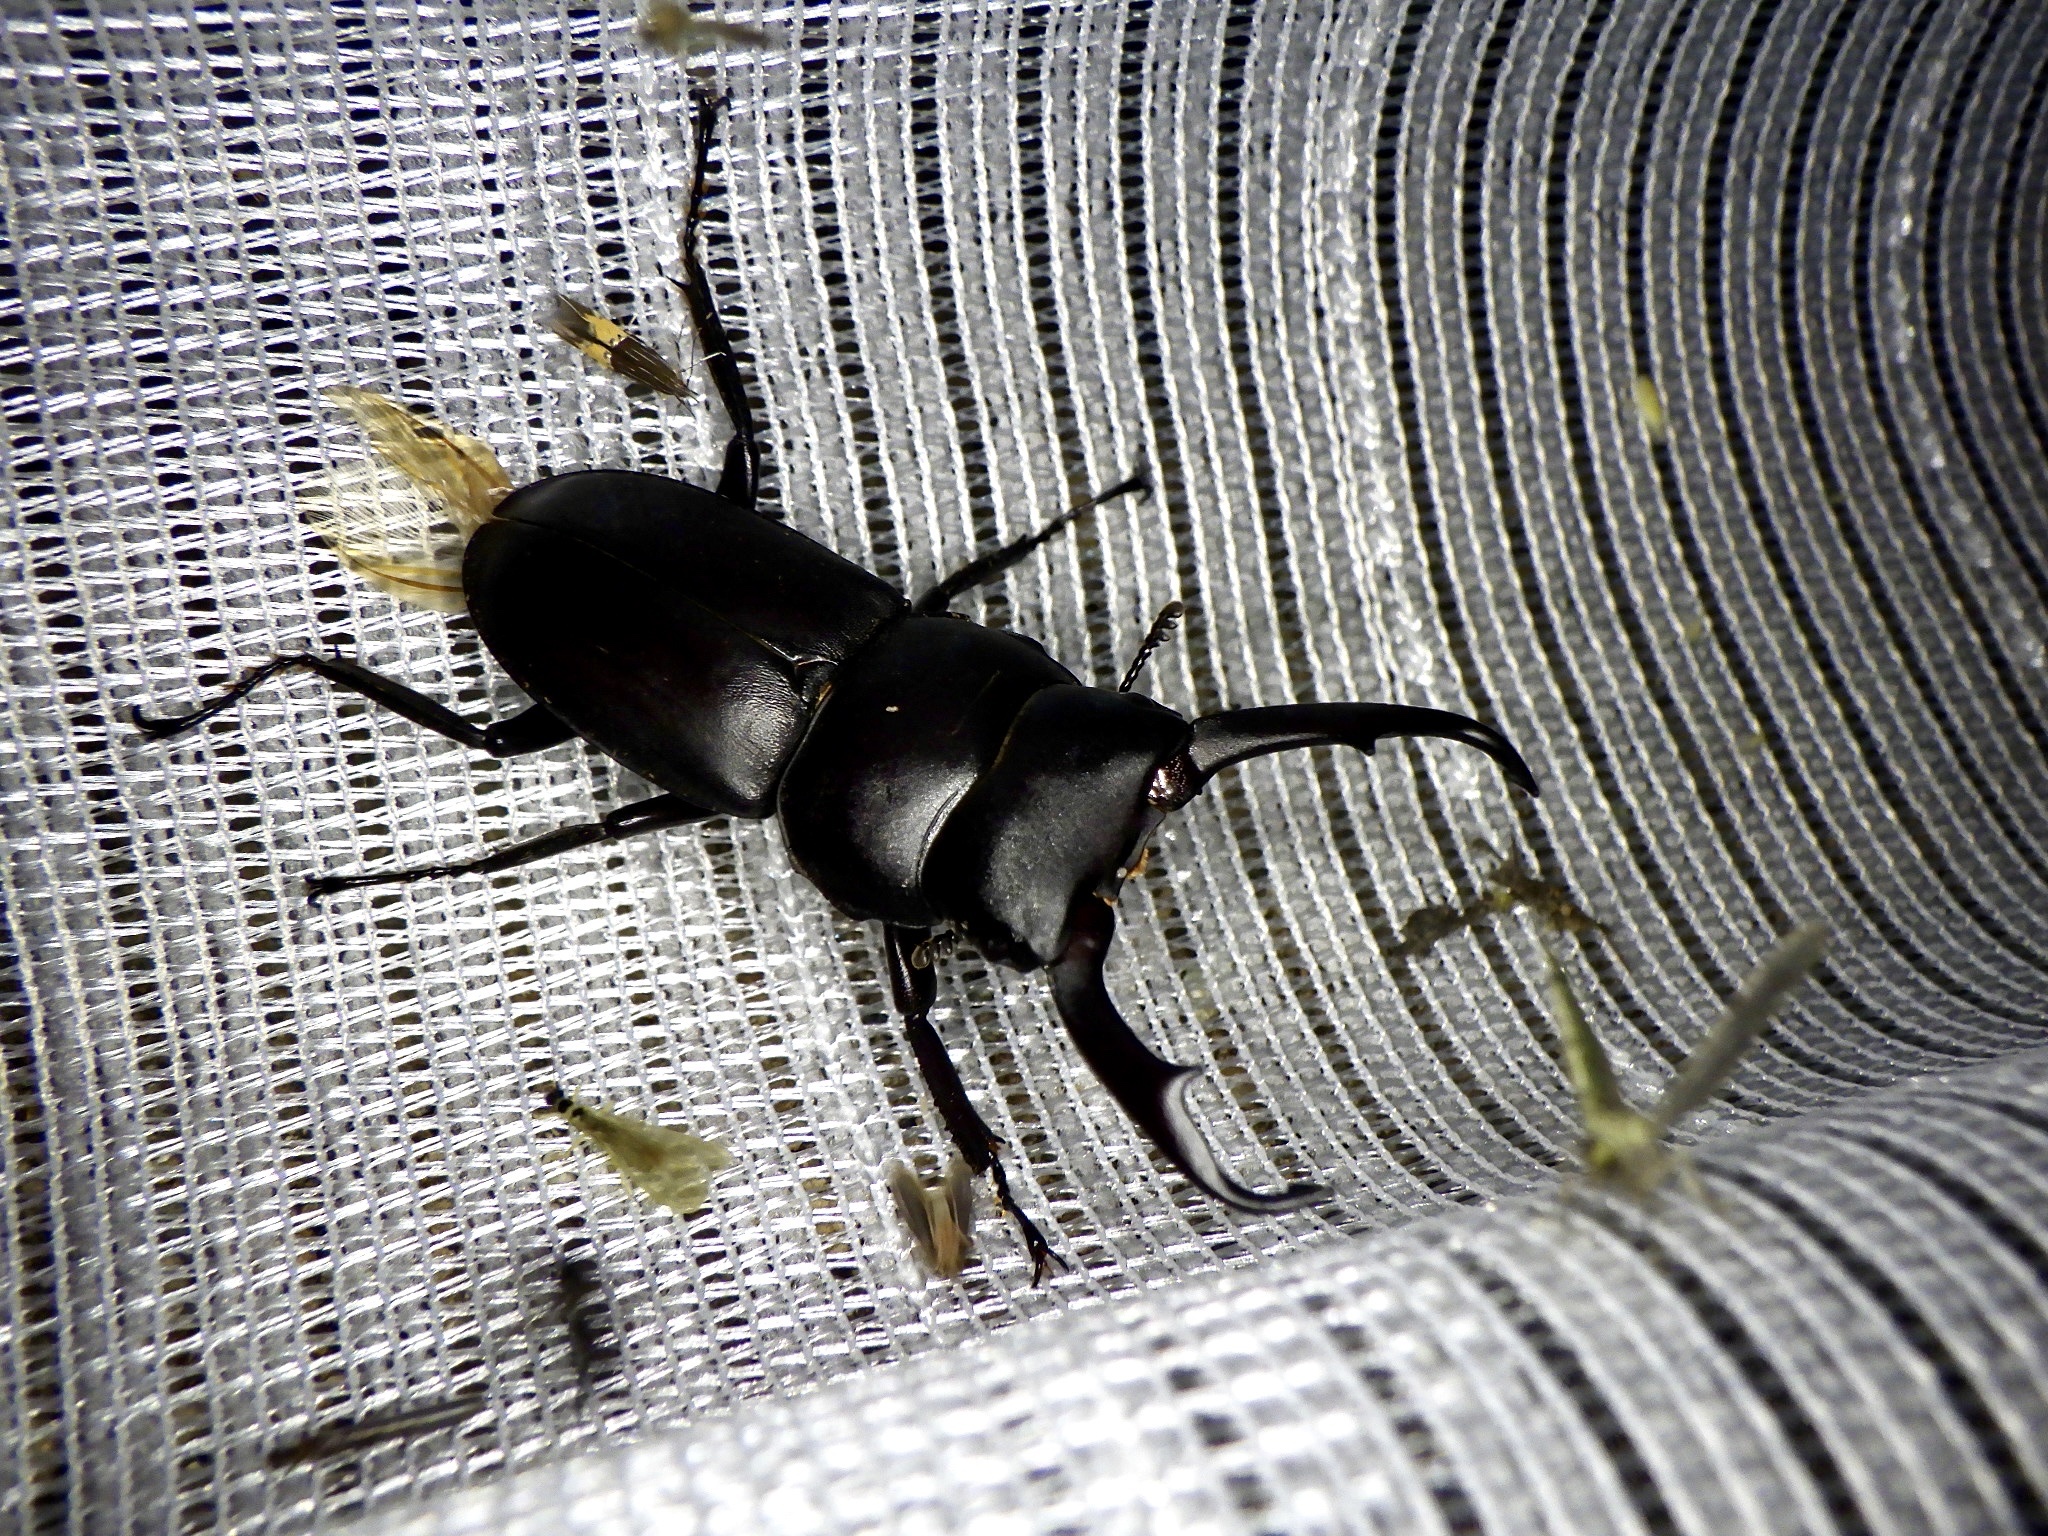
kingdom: Animalia
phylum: Arthropoda
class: Insecta
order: Coleoptera
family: Lucanidae
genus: Dorcus
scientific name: Dorcus rectus
